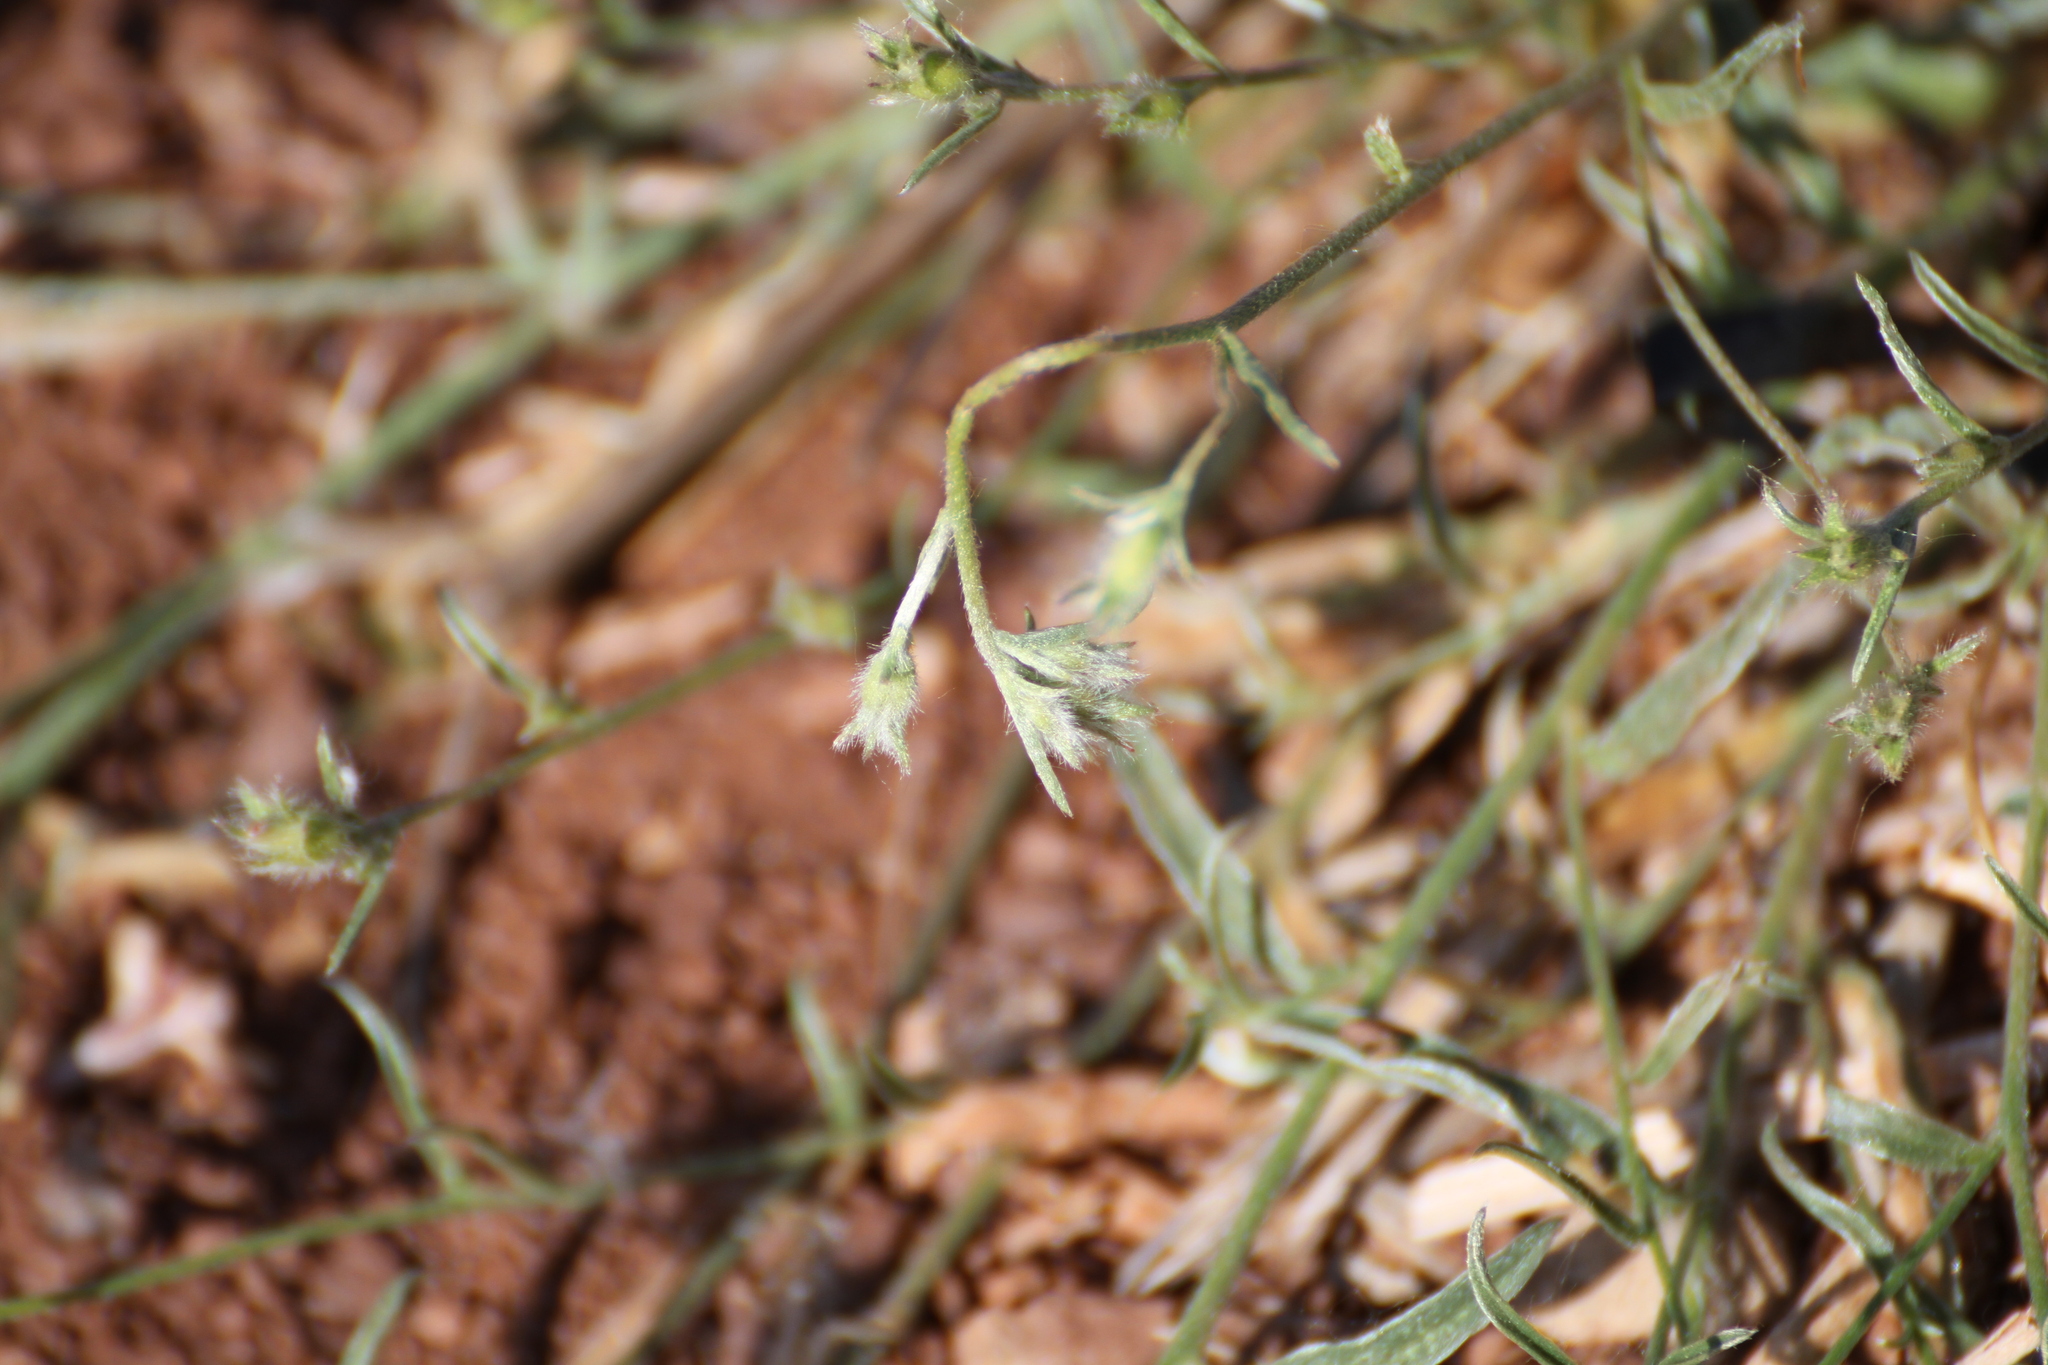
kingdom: Plantae
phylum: Tracheophyta
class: Magnoliopsida
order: Solanales
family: Convolvulaceae
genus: Convolvulus
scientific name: Convolvulus cantabrica
